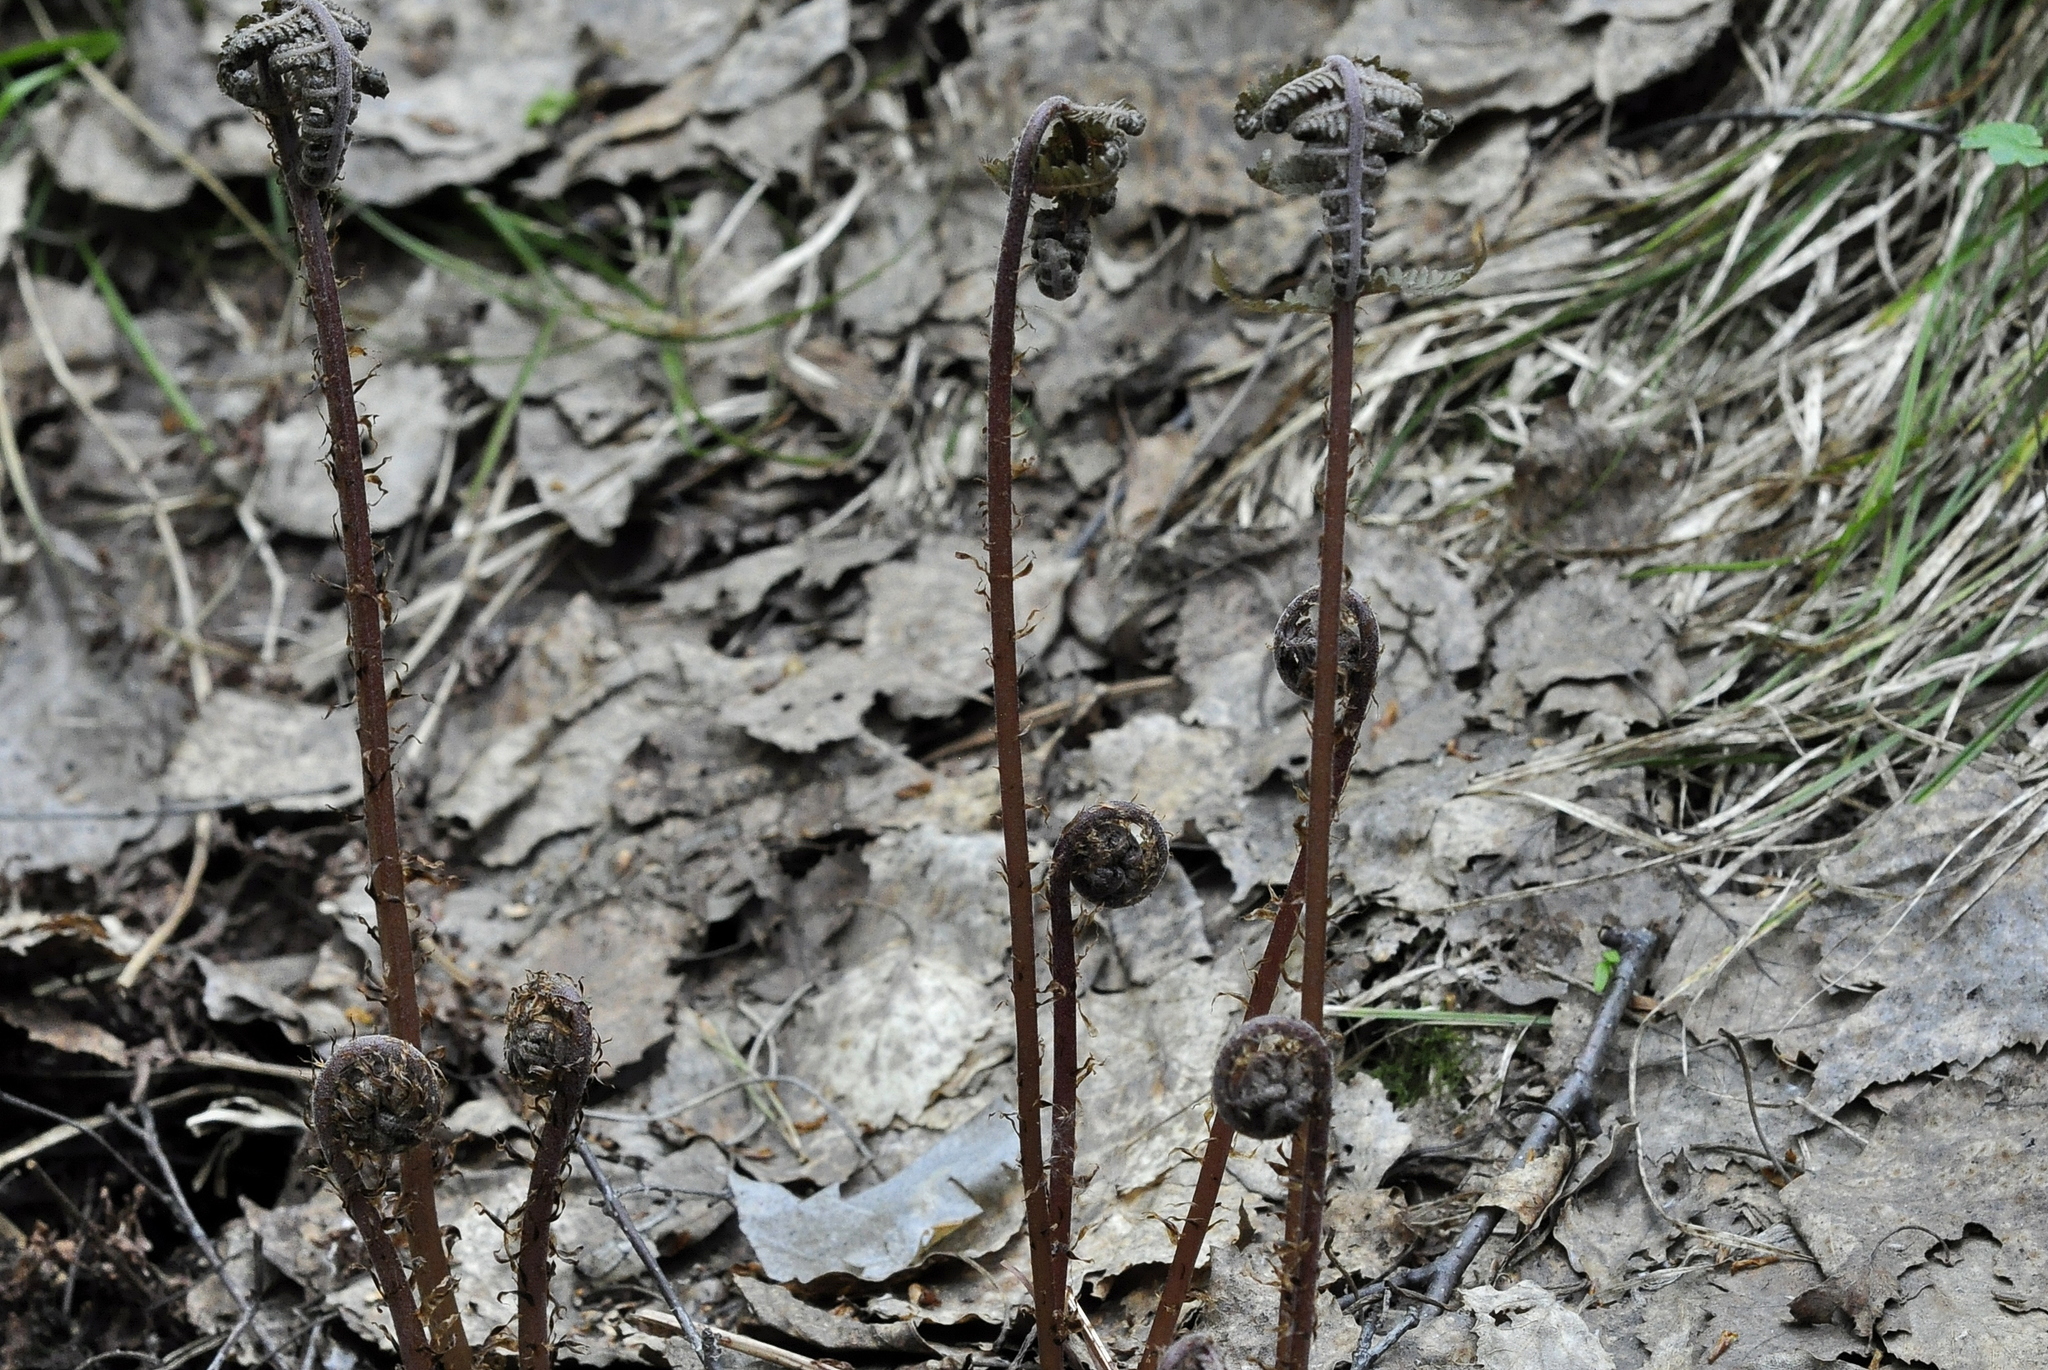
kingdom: Plantae
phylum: Tracheophyta
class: Polypodiopsida
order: Polypodiales
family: Athyriaceae
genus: Athyrium
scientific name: Athyrium filix-femina
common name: Lady fern
